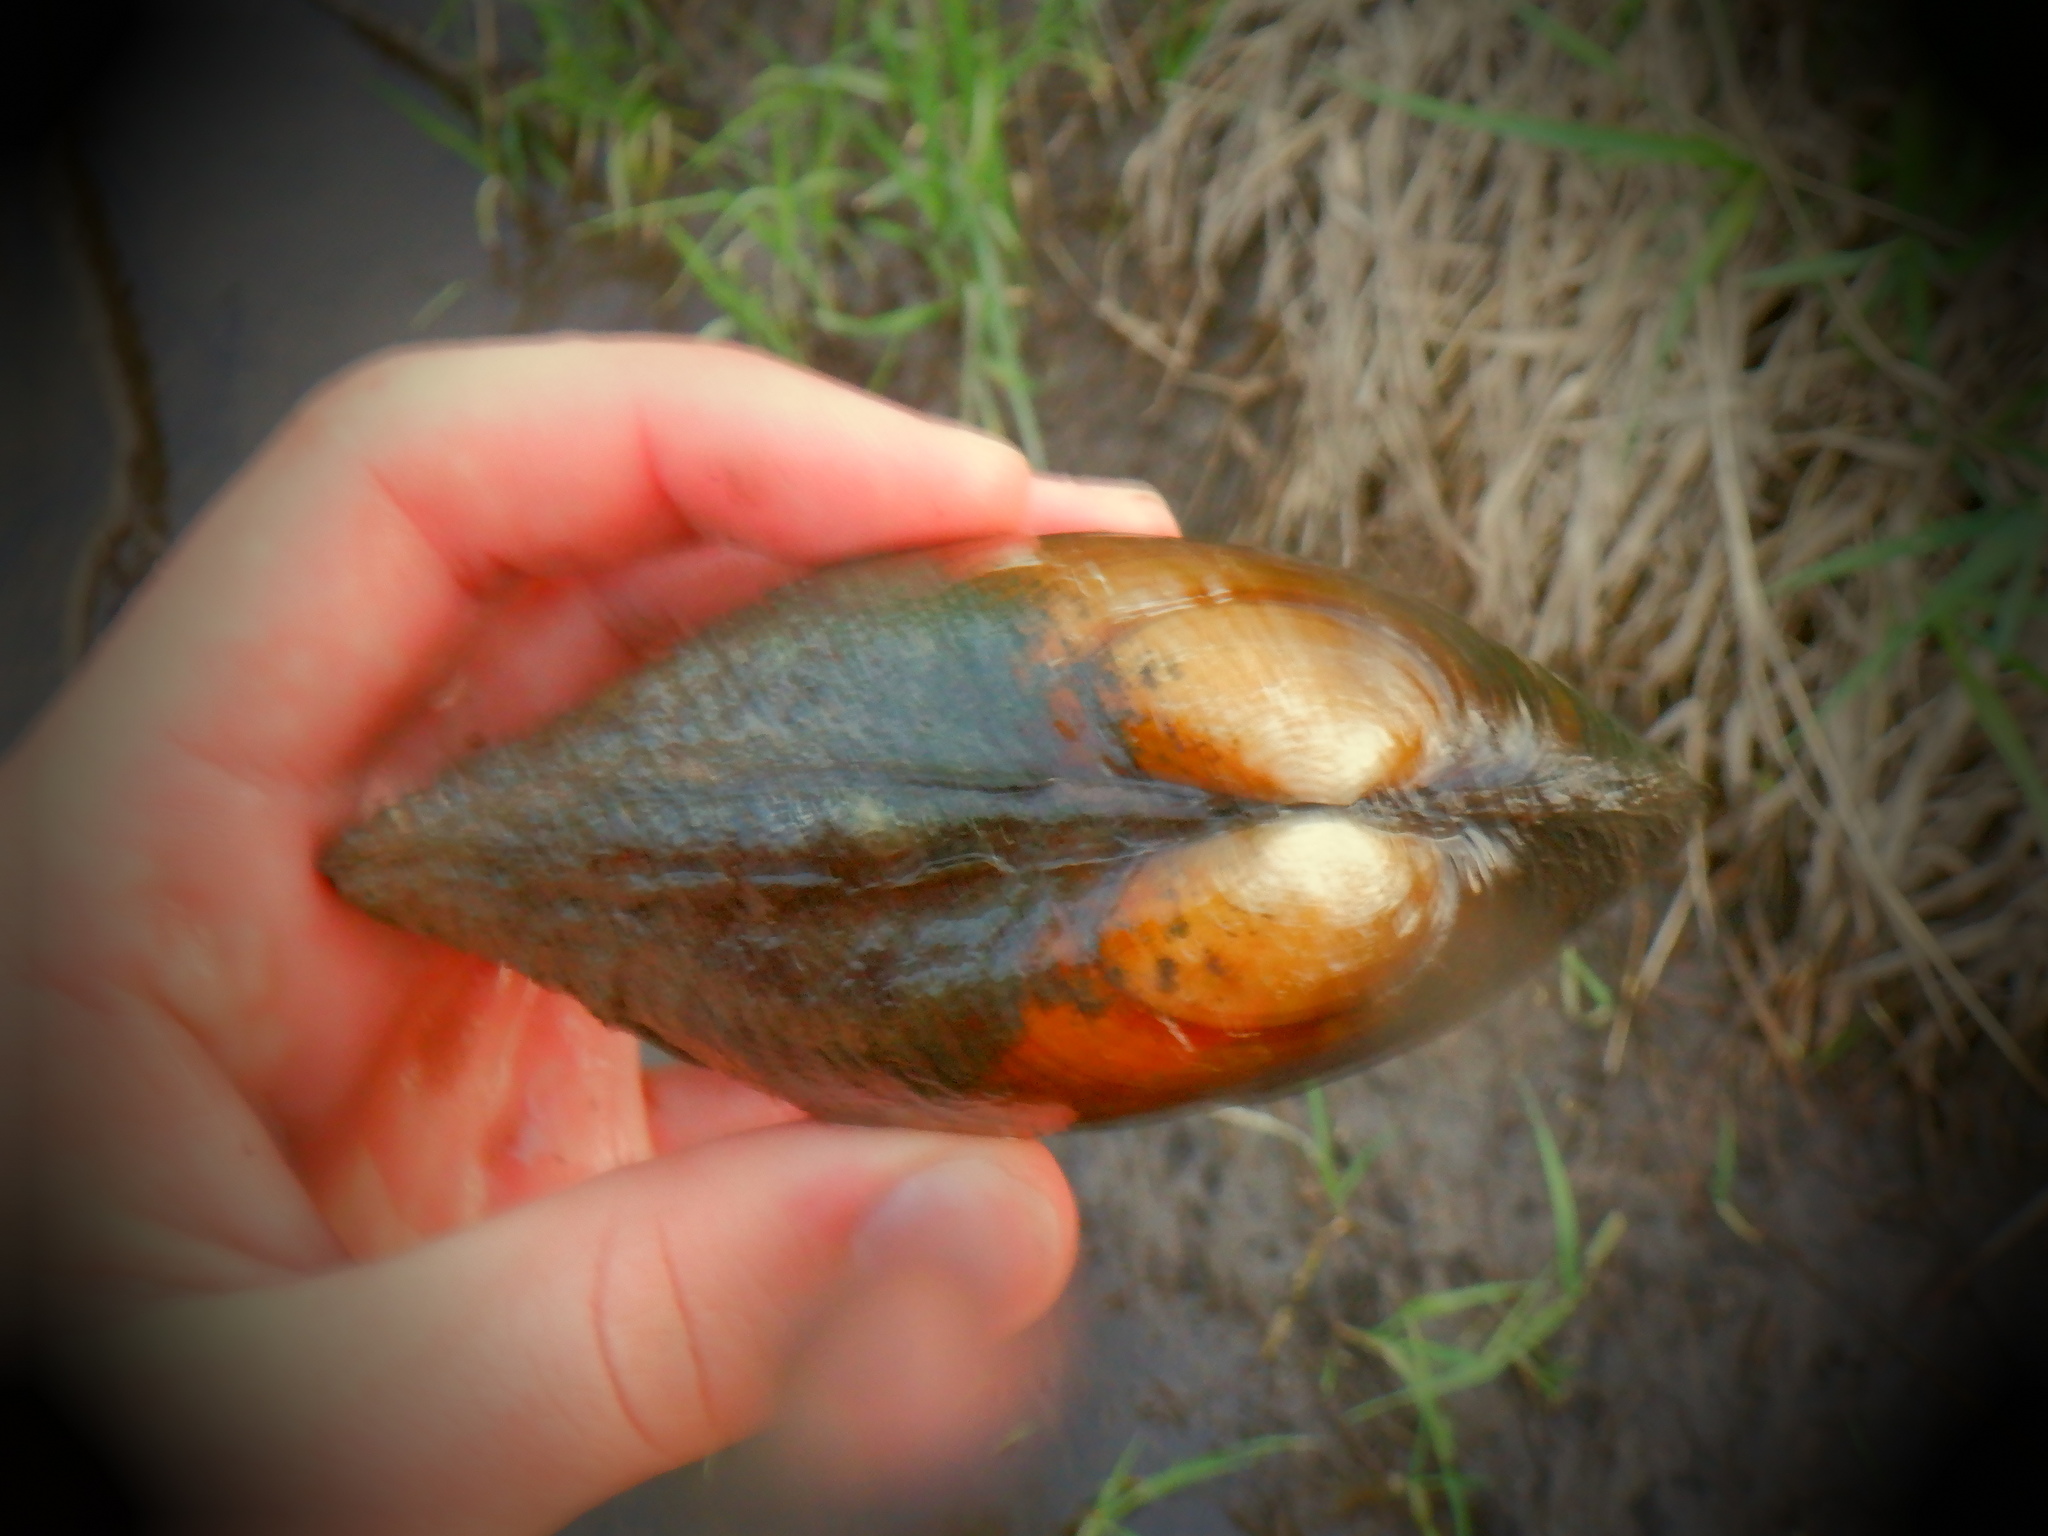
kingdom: Animalia
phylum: Mollusca
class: Bivalvia
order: Unionida
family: Unionidae
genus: Lampsilis
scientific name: Lampsilis siliquoidea
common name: Fatmucket
